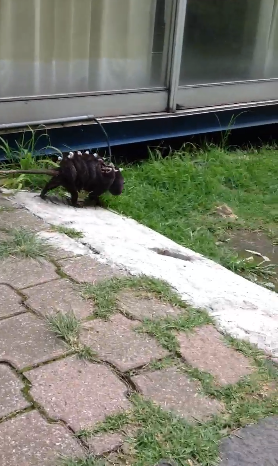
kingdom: Animalia
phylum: Chordata
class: Mammalia
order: Didelphimorphia
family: Didelphidae
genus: Didelphis
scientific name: Didelphis virginiana
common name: Virginia opossum
